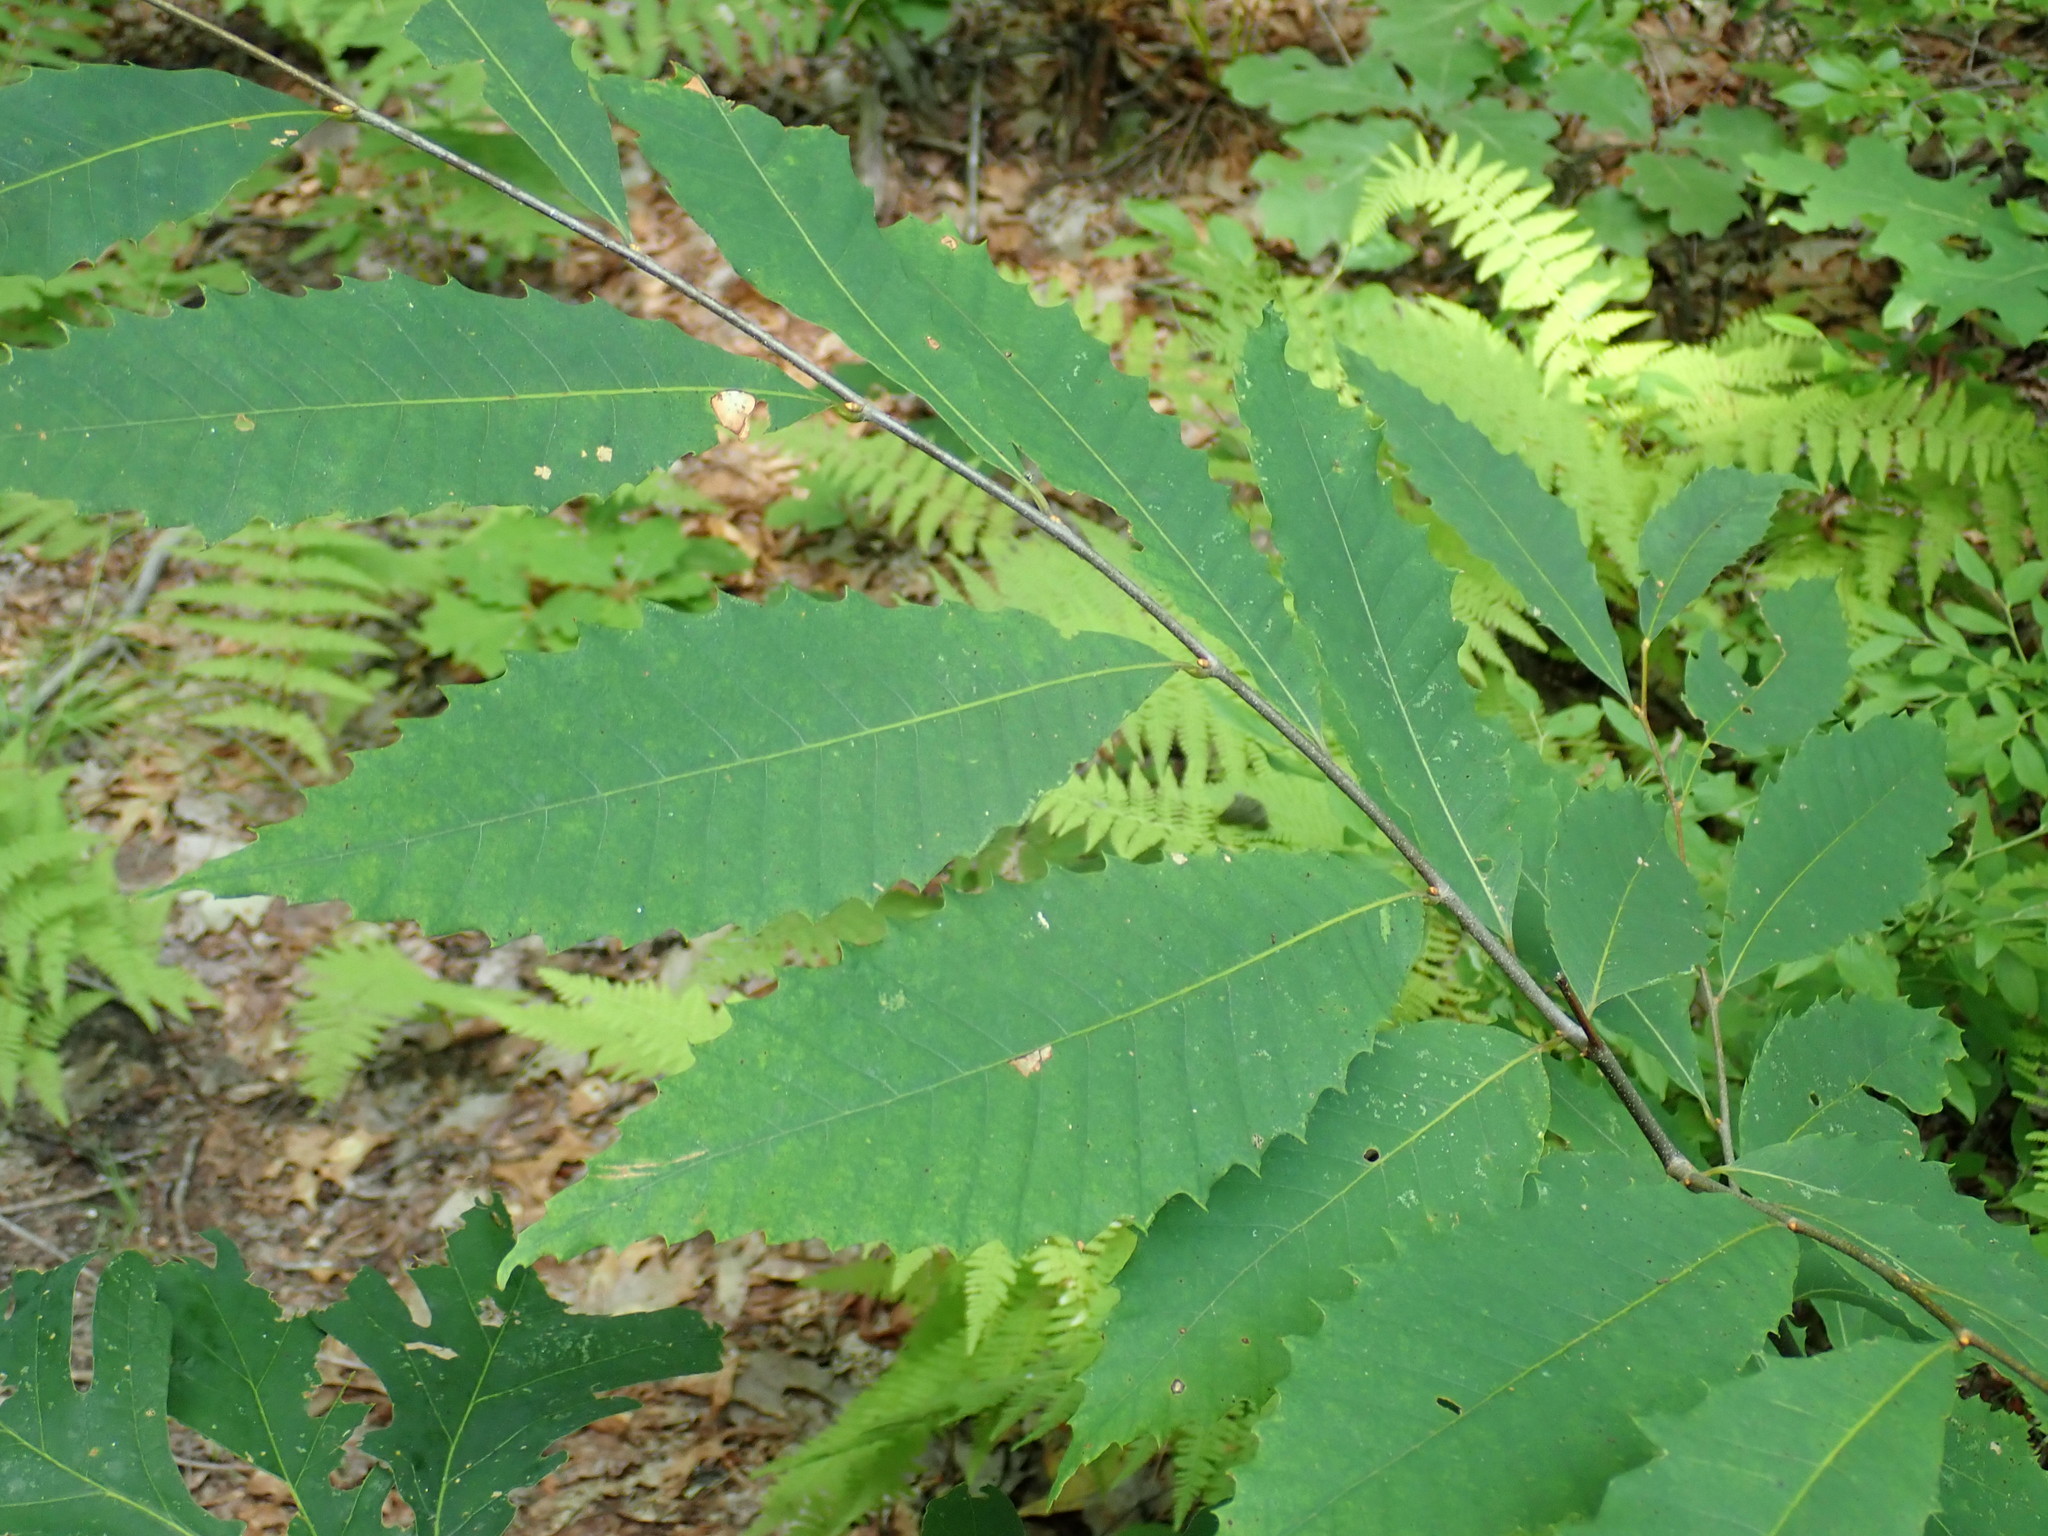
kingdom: Plantae
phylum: Tracheophyta
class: Magnoliopsida
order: Fagales
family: Fagaceae
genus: Castanea
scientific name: Castanea dentata
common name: American chestnut
